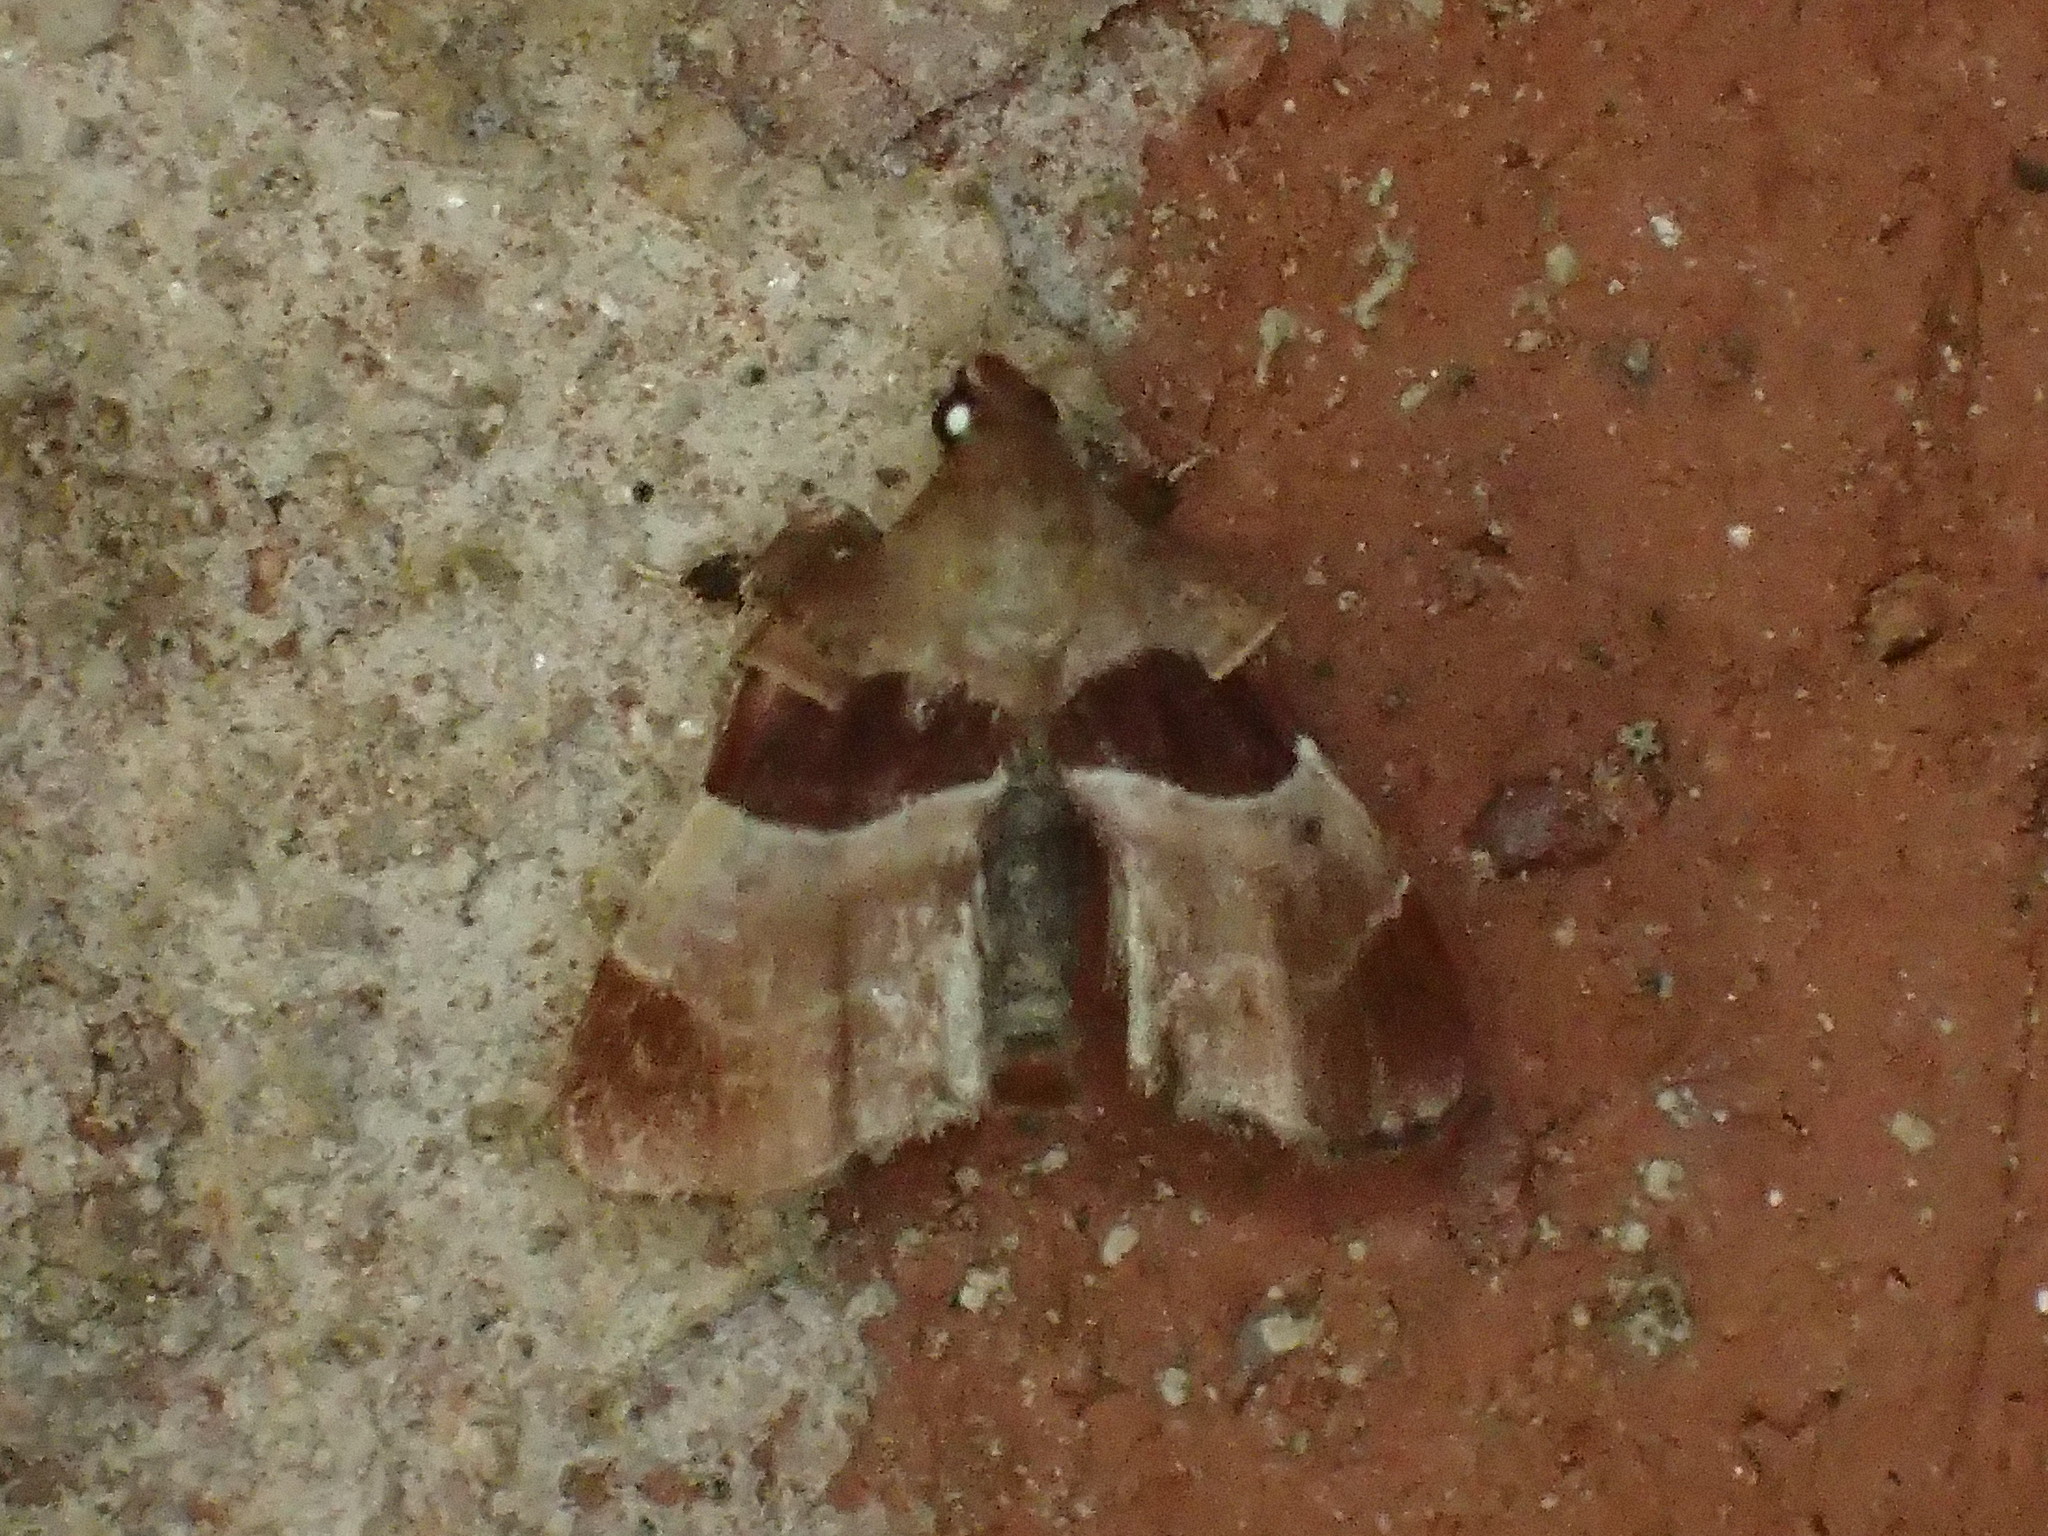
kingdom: Animalia
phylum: Arthropoda
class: Insecta
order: Lepidoptera
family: Pyralidae
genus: Tosale
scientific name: Tosale oviplagalis
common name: Dimorphic tosale moth
